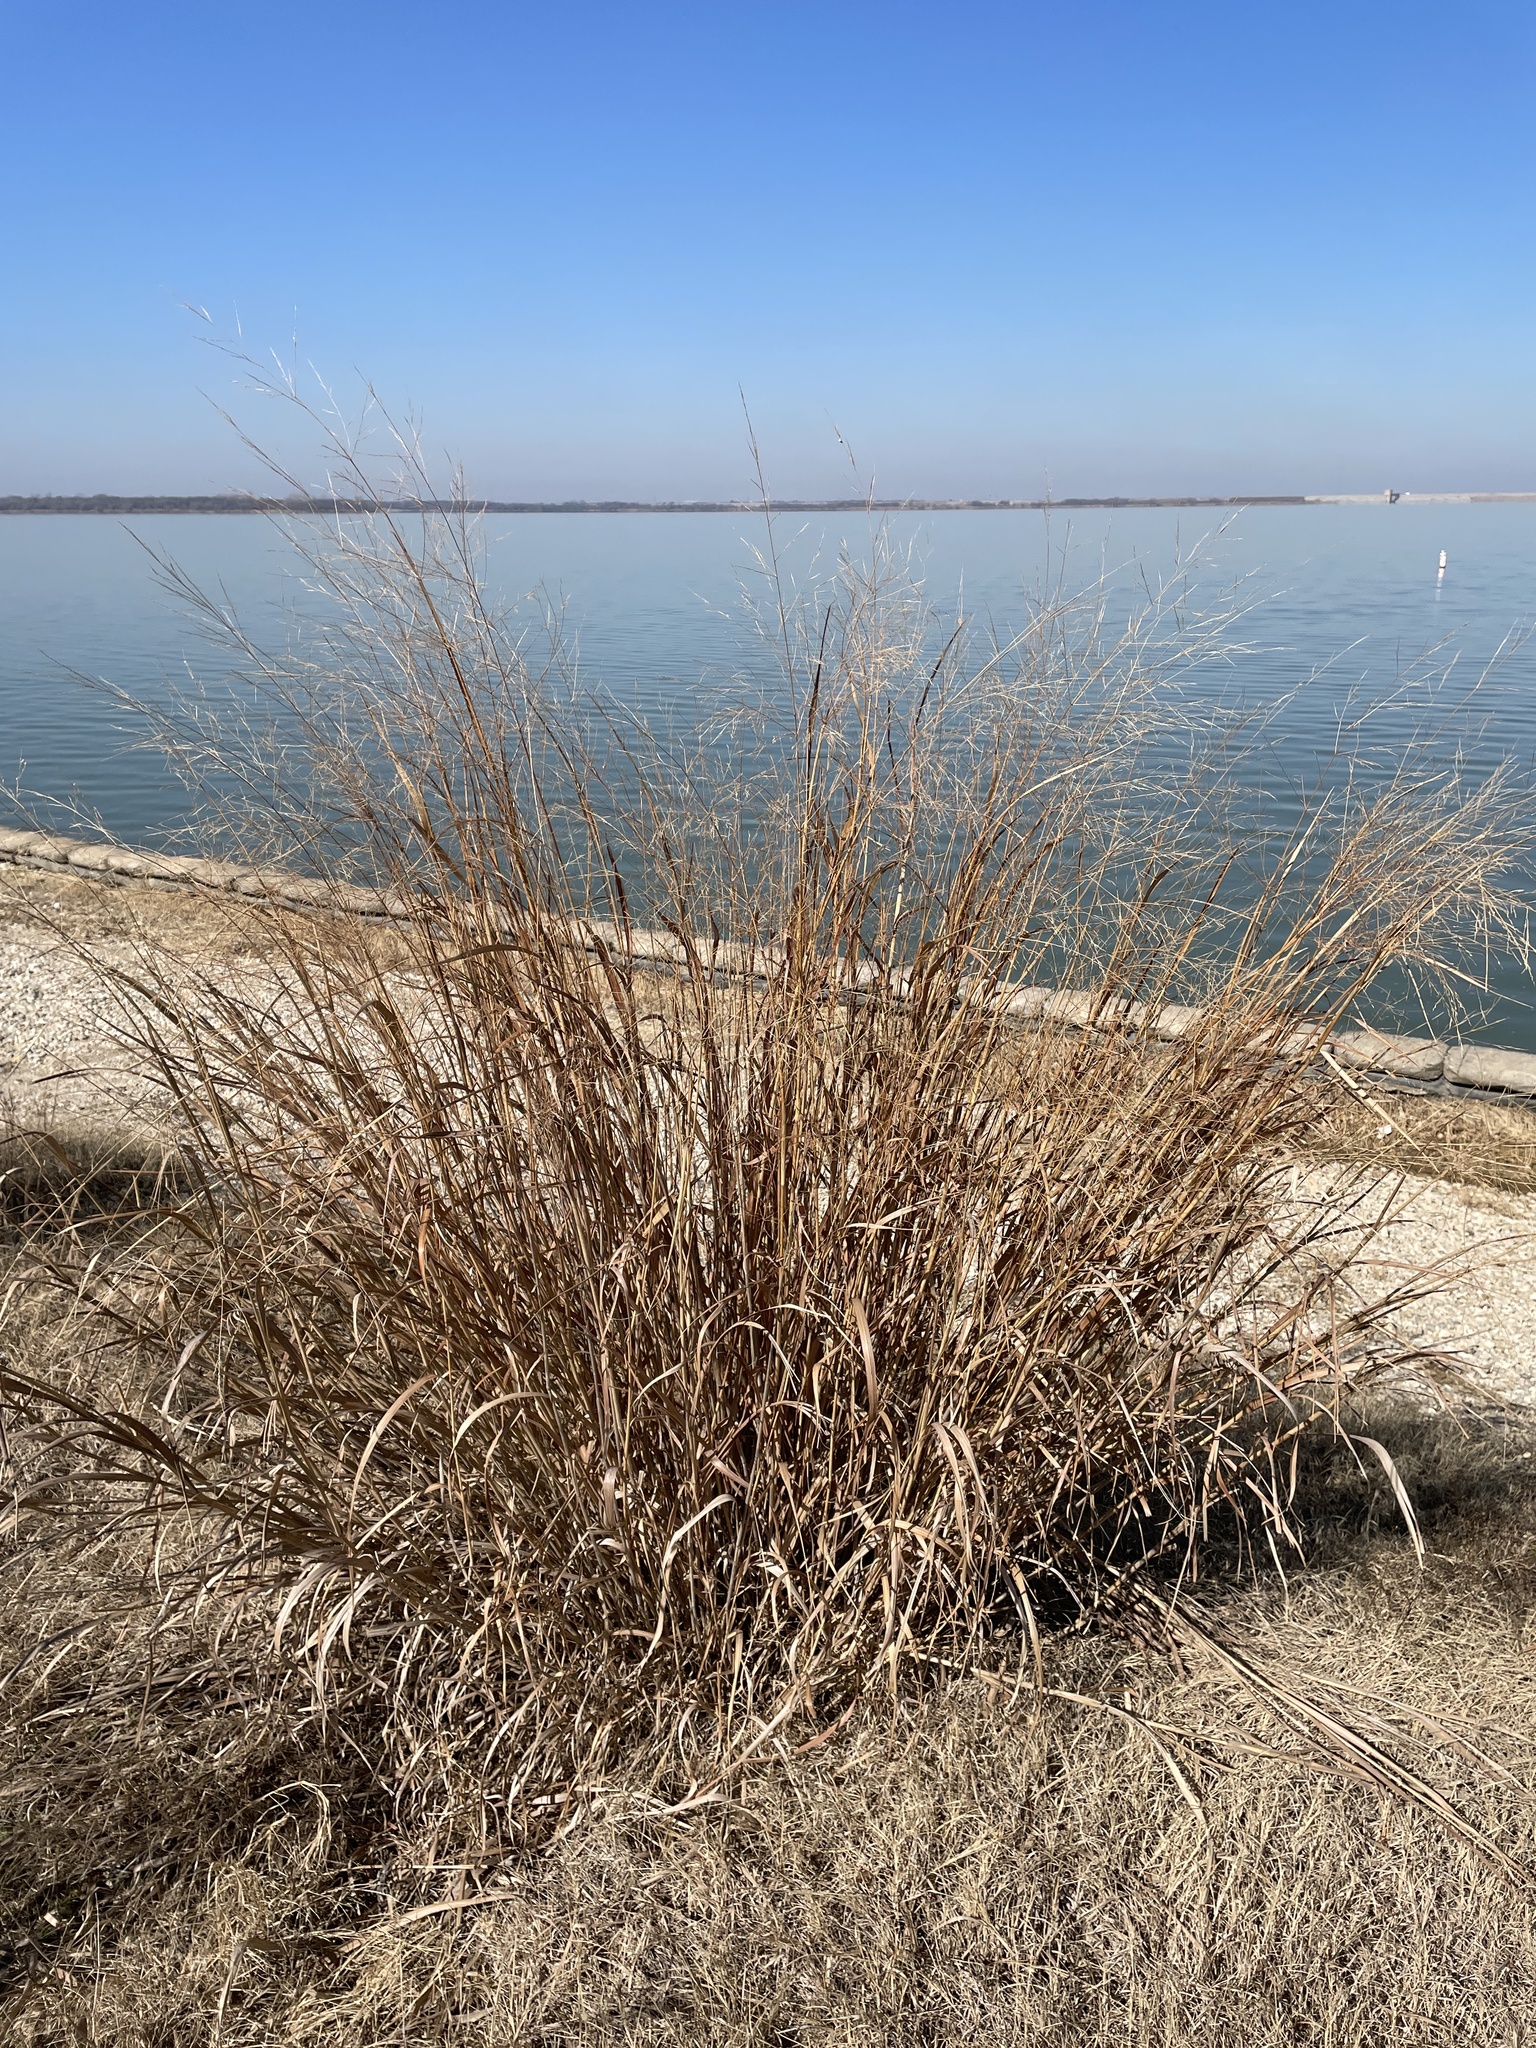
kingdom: Plantae
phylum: Tracheophyta
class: Liliopsida
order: Poales
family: Poaceae
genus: Panicum
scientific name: Panicum virgatum
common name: Switchgrass
